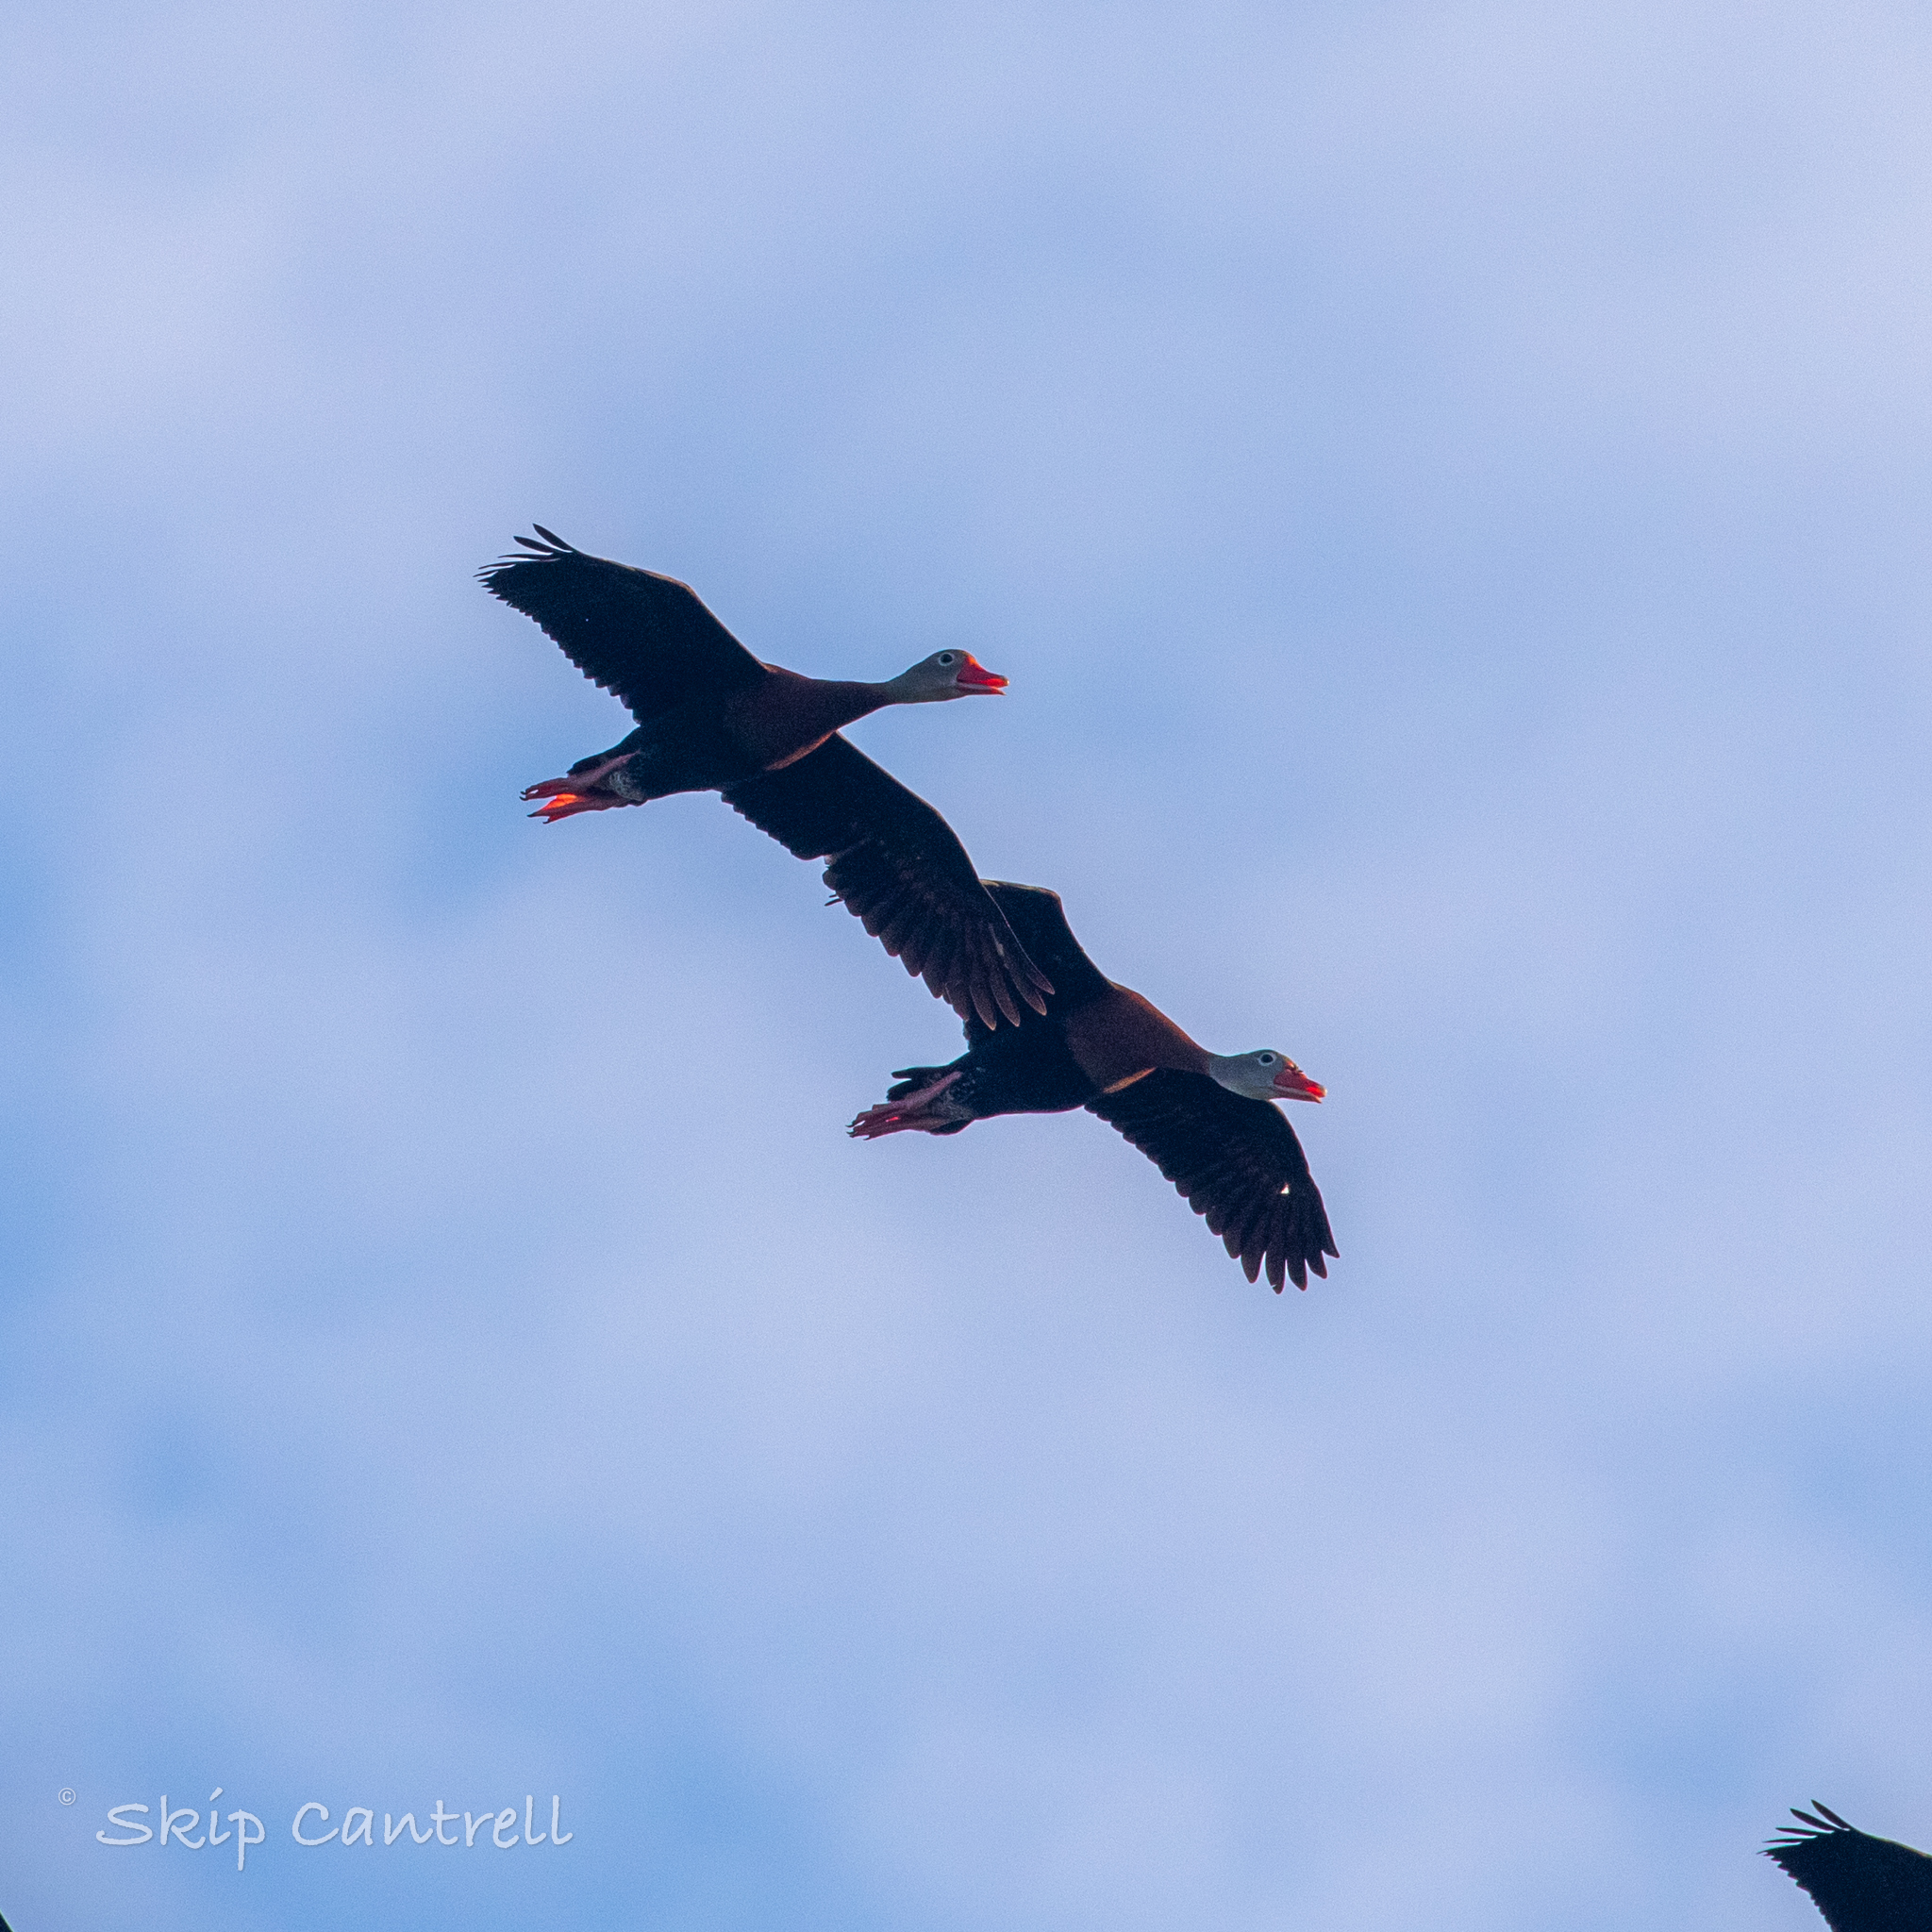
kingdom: Animalia
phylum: Chordata
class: Aves
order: Anseriformes
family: Anatidae
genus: Dendrocygna
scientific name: Dendrocygna autumnalis
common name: Black-bellied whistling duck
